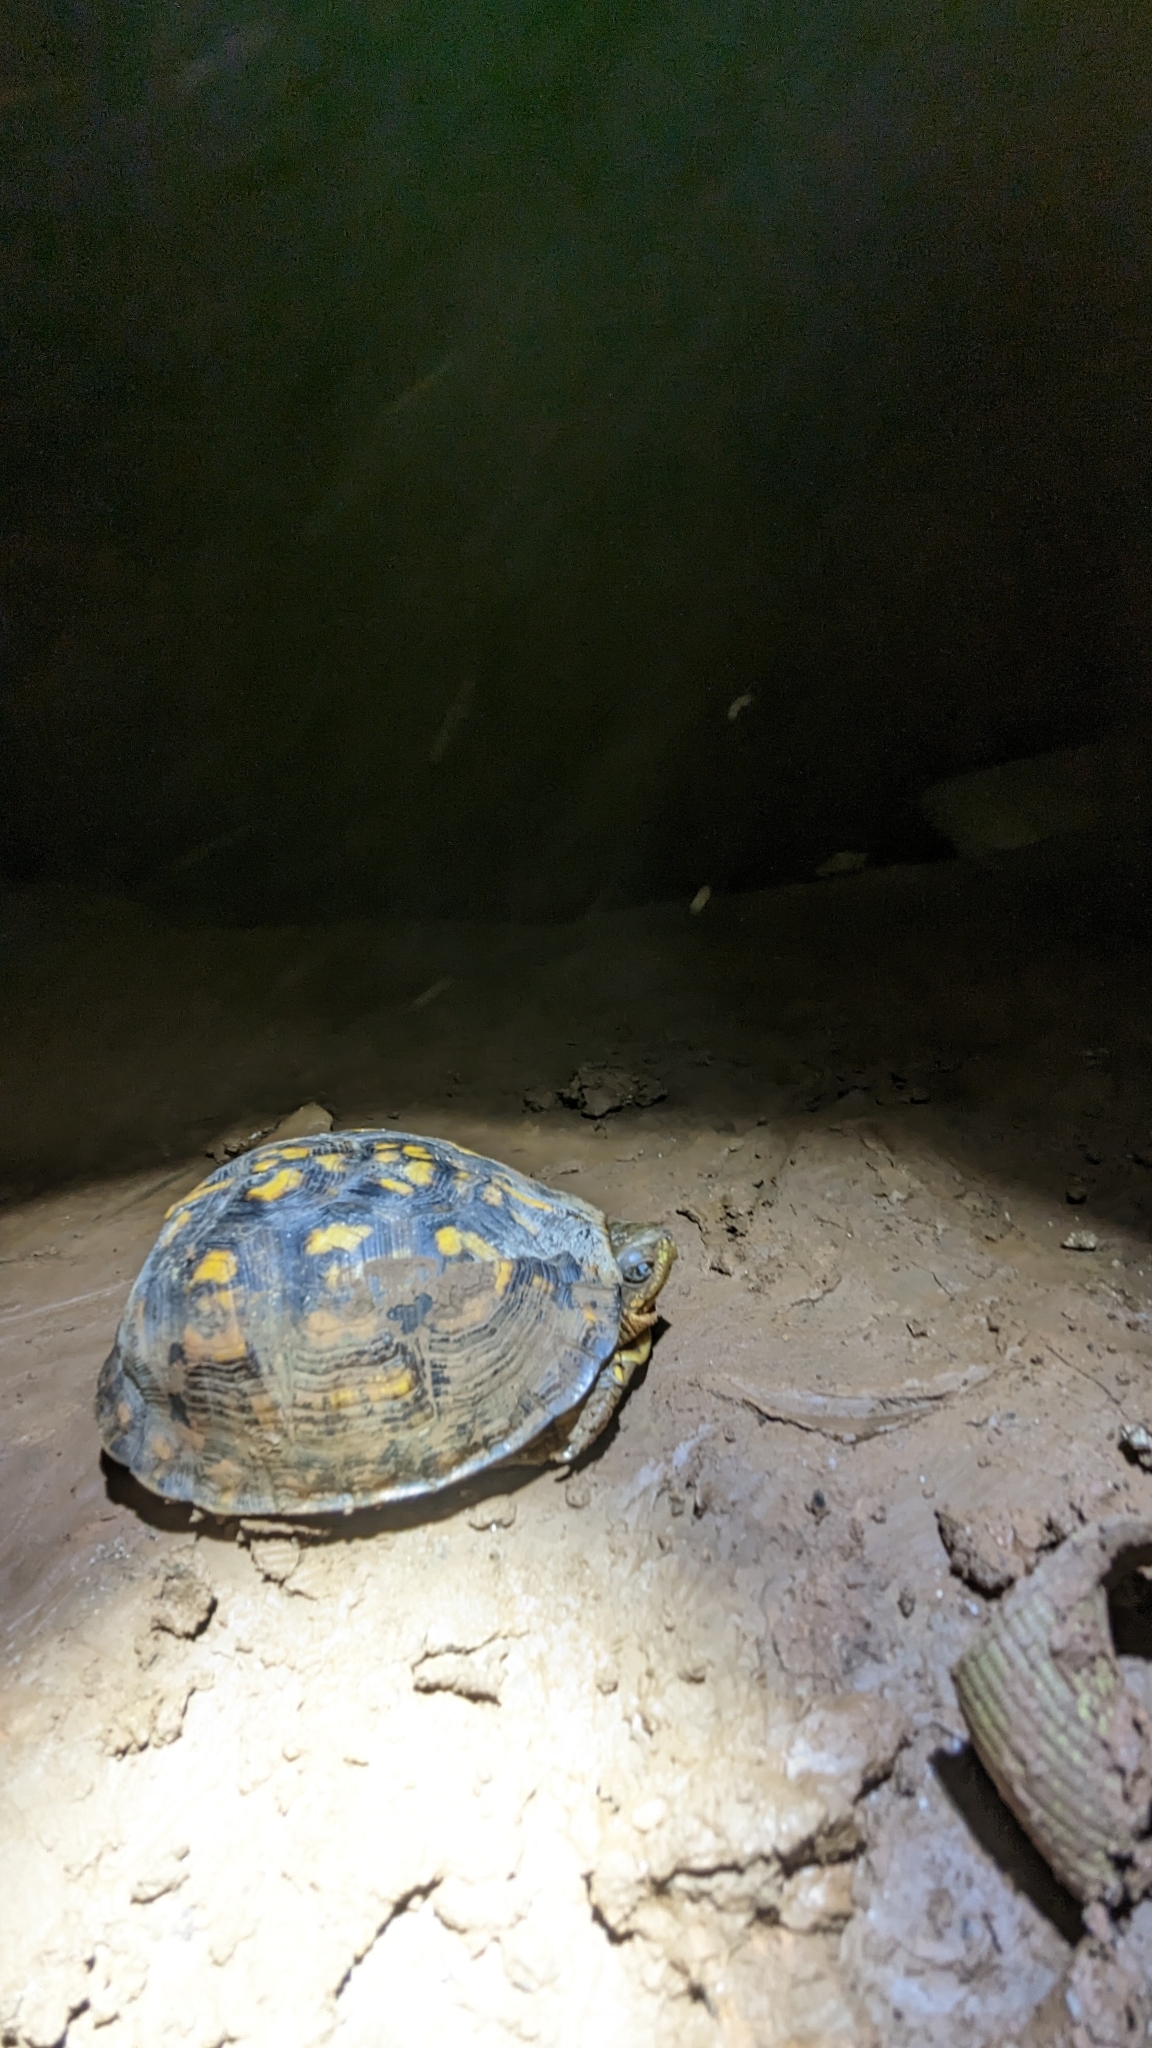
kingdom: Animalia
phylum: Chordata
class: Testudines
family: Emydidae
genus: Terrapene
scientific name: Terrapene carolina
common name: Common box turtle
